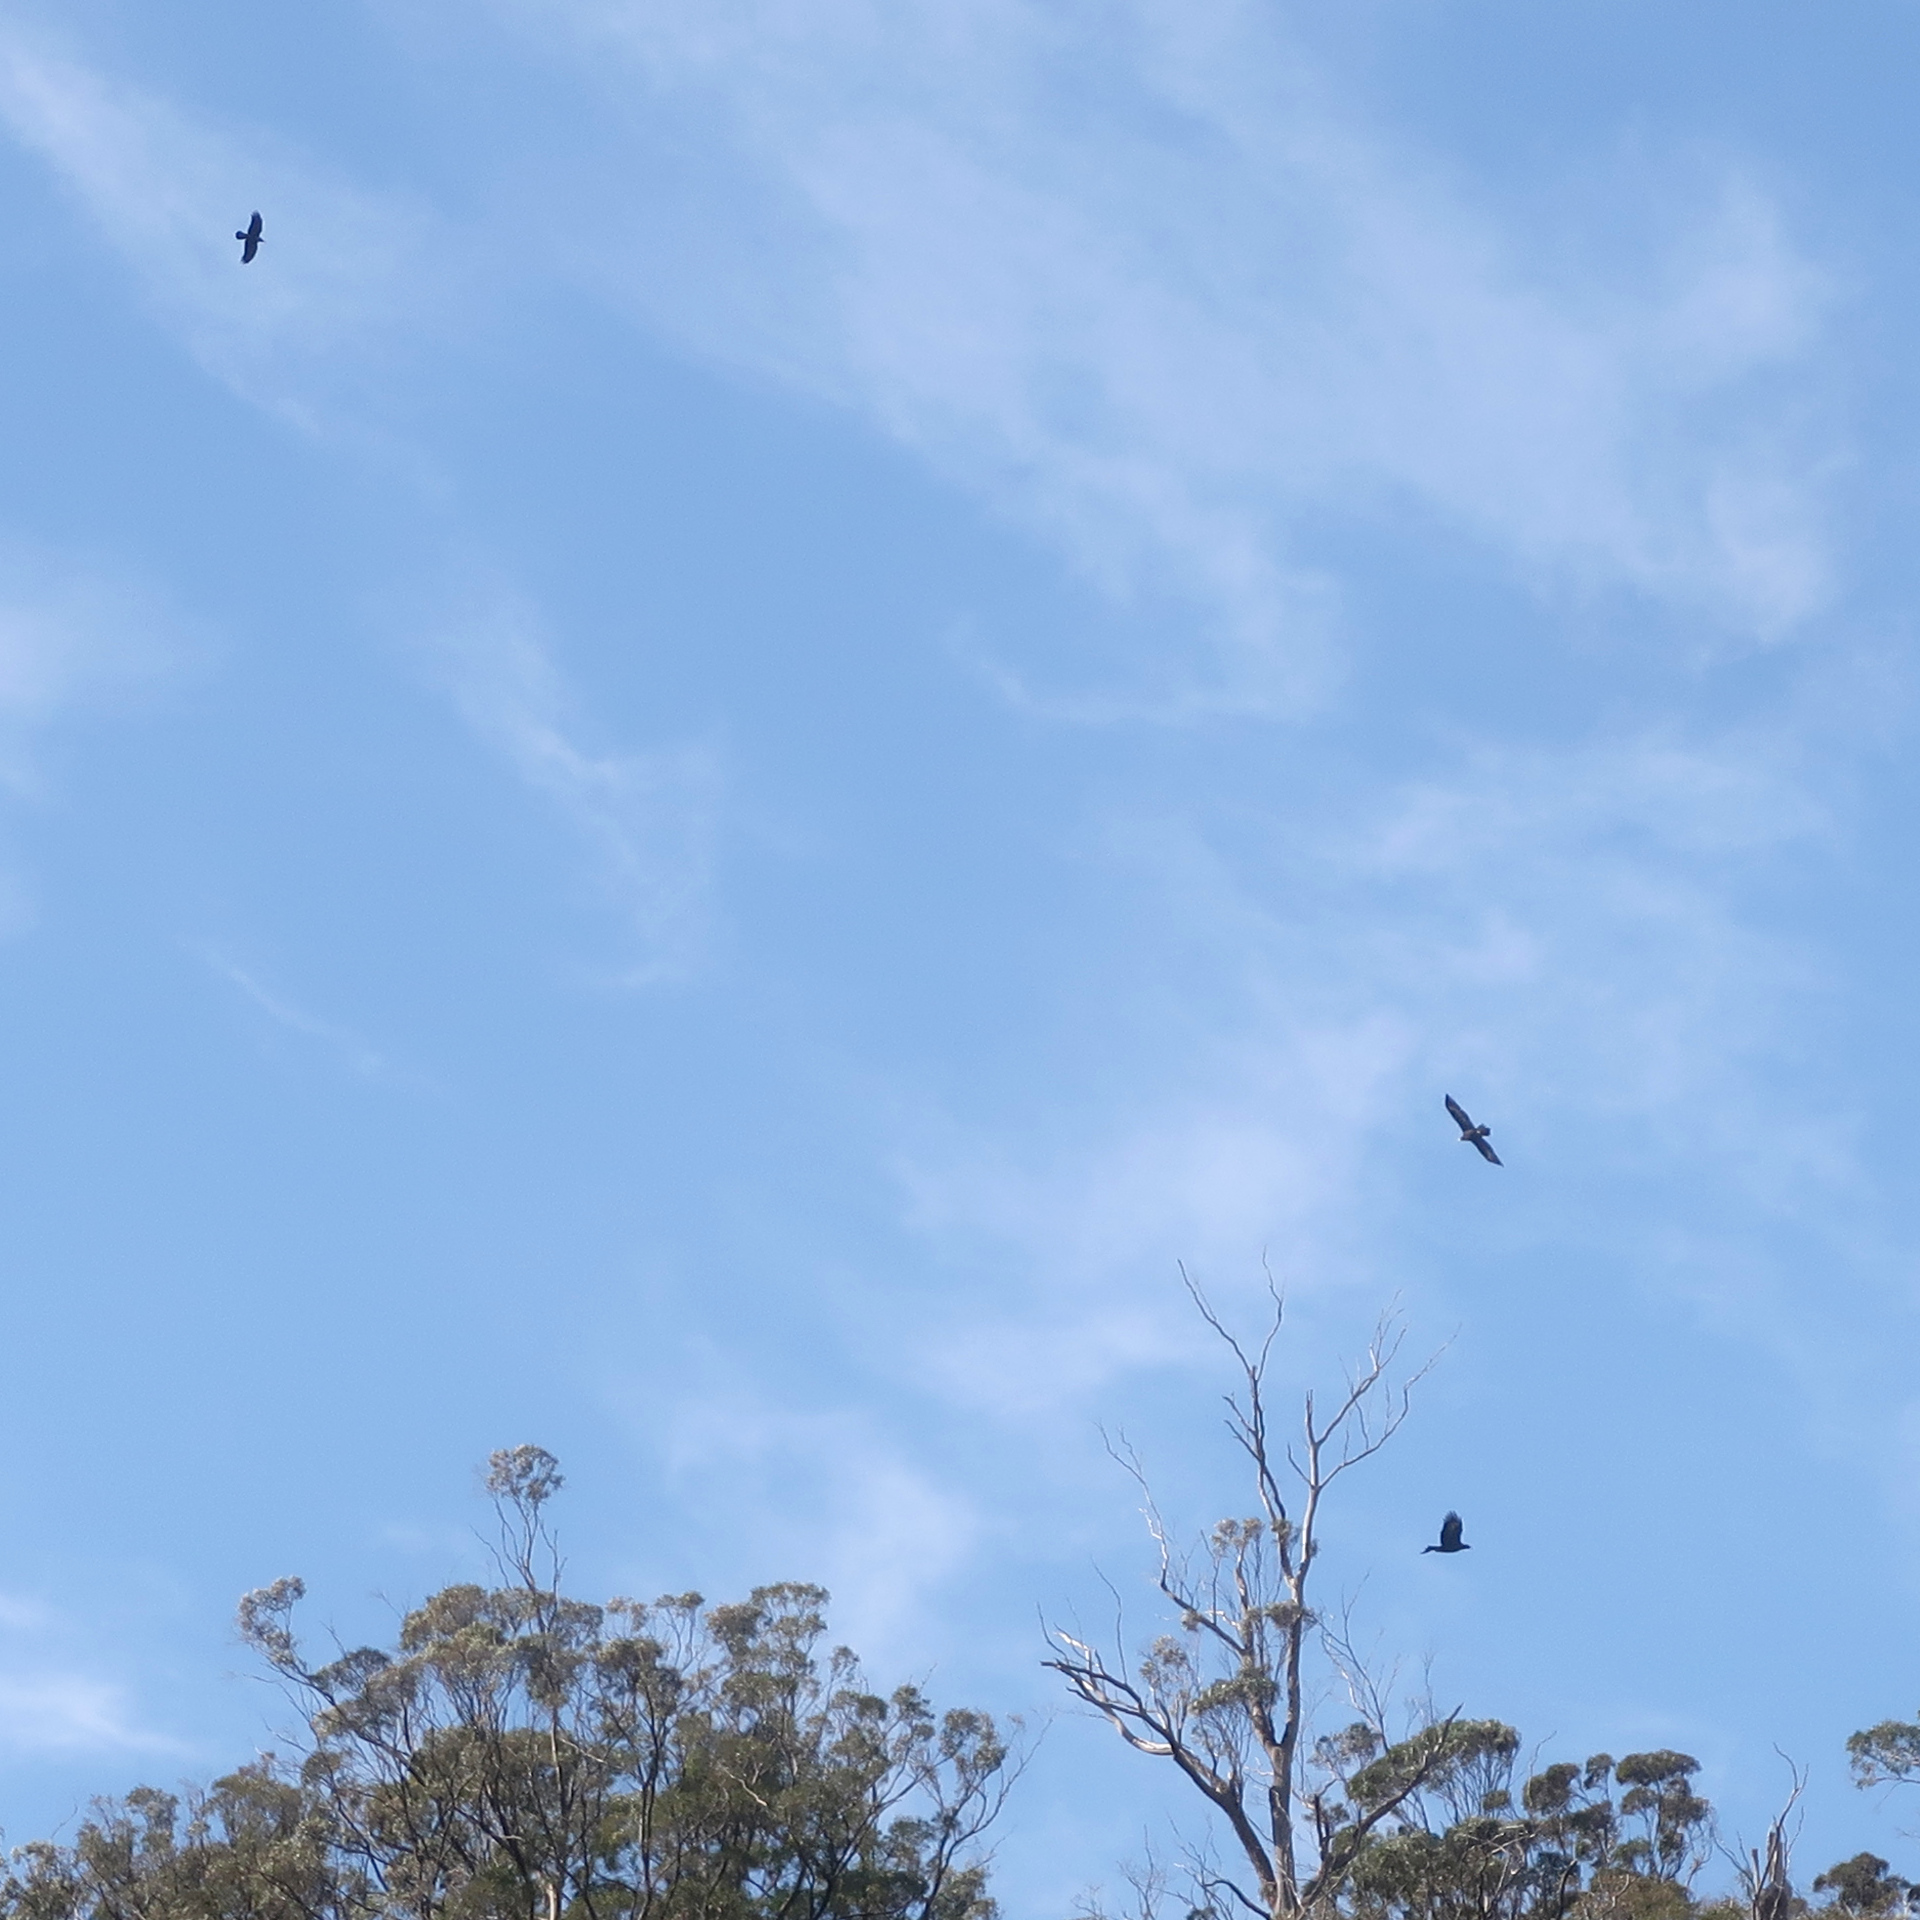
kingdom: Animalia
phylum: Chordata
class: Aves
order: Accipitriformes
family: Accipitridae
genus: Aquila
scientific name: Aquila audax
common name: Wedge-tailed eagle
